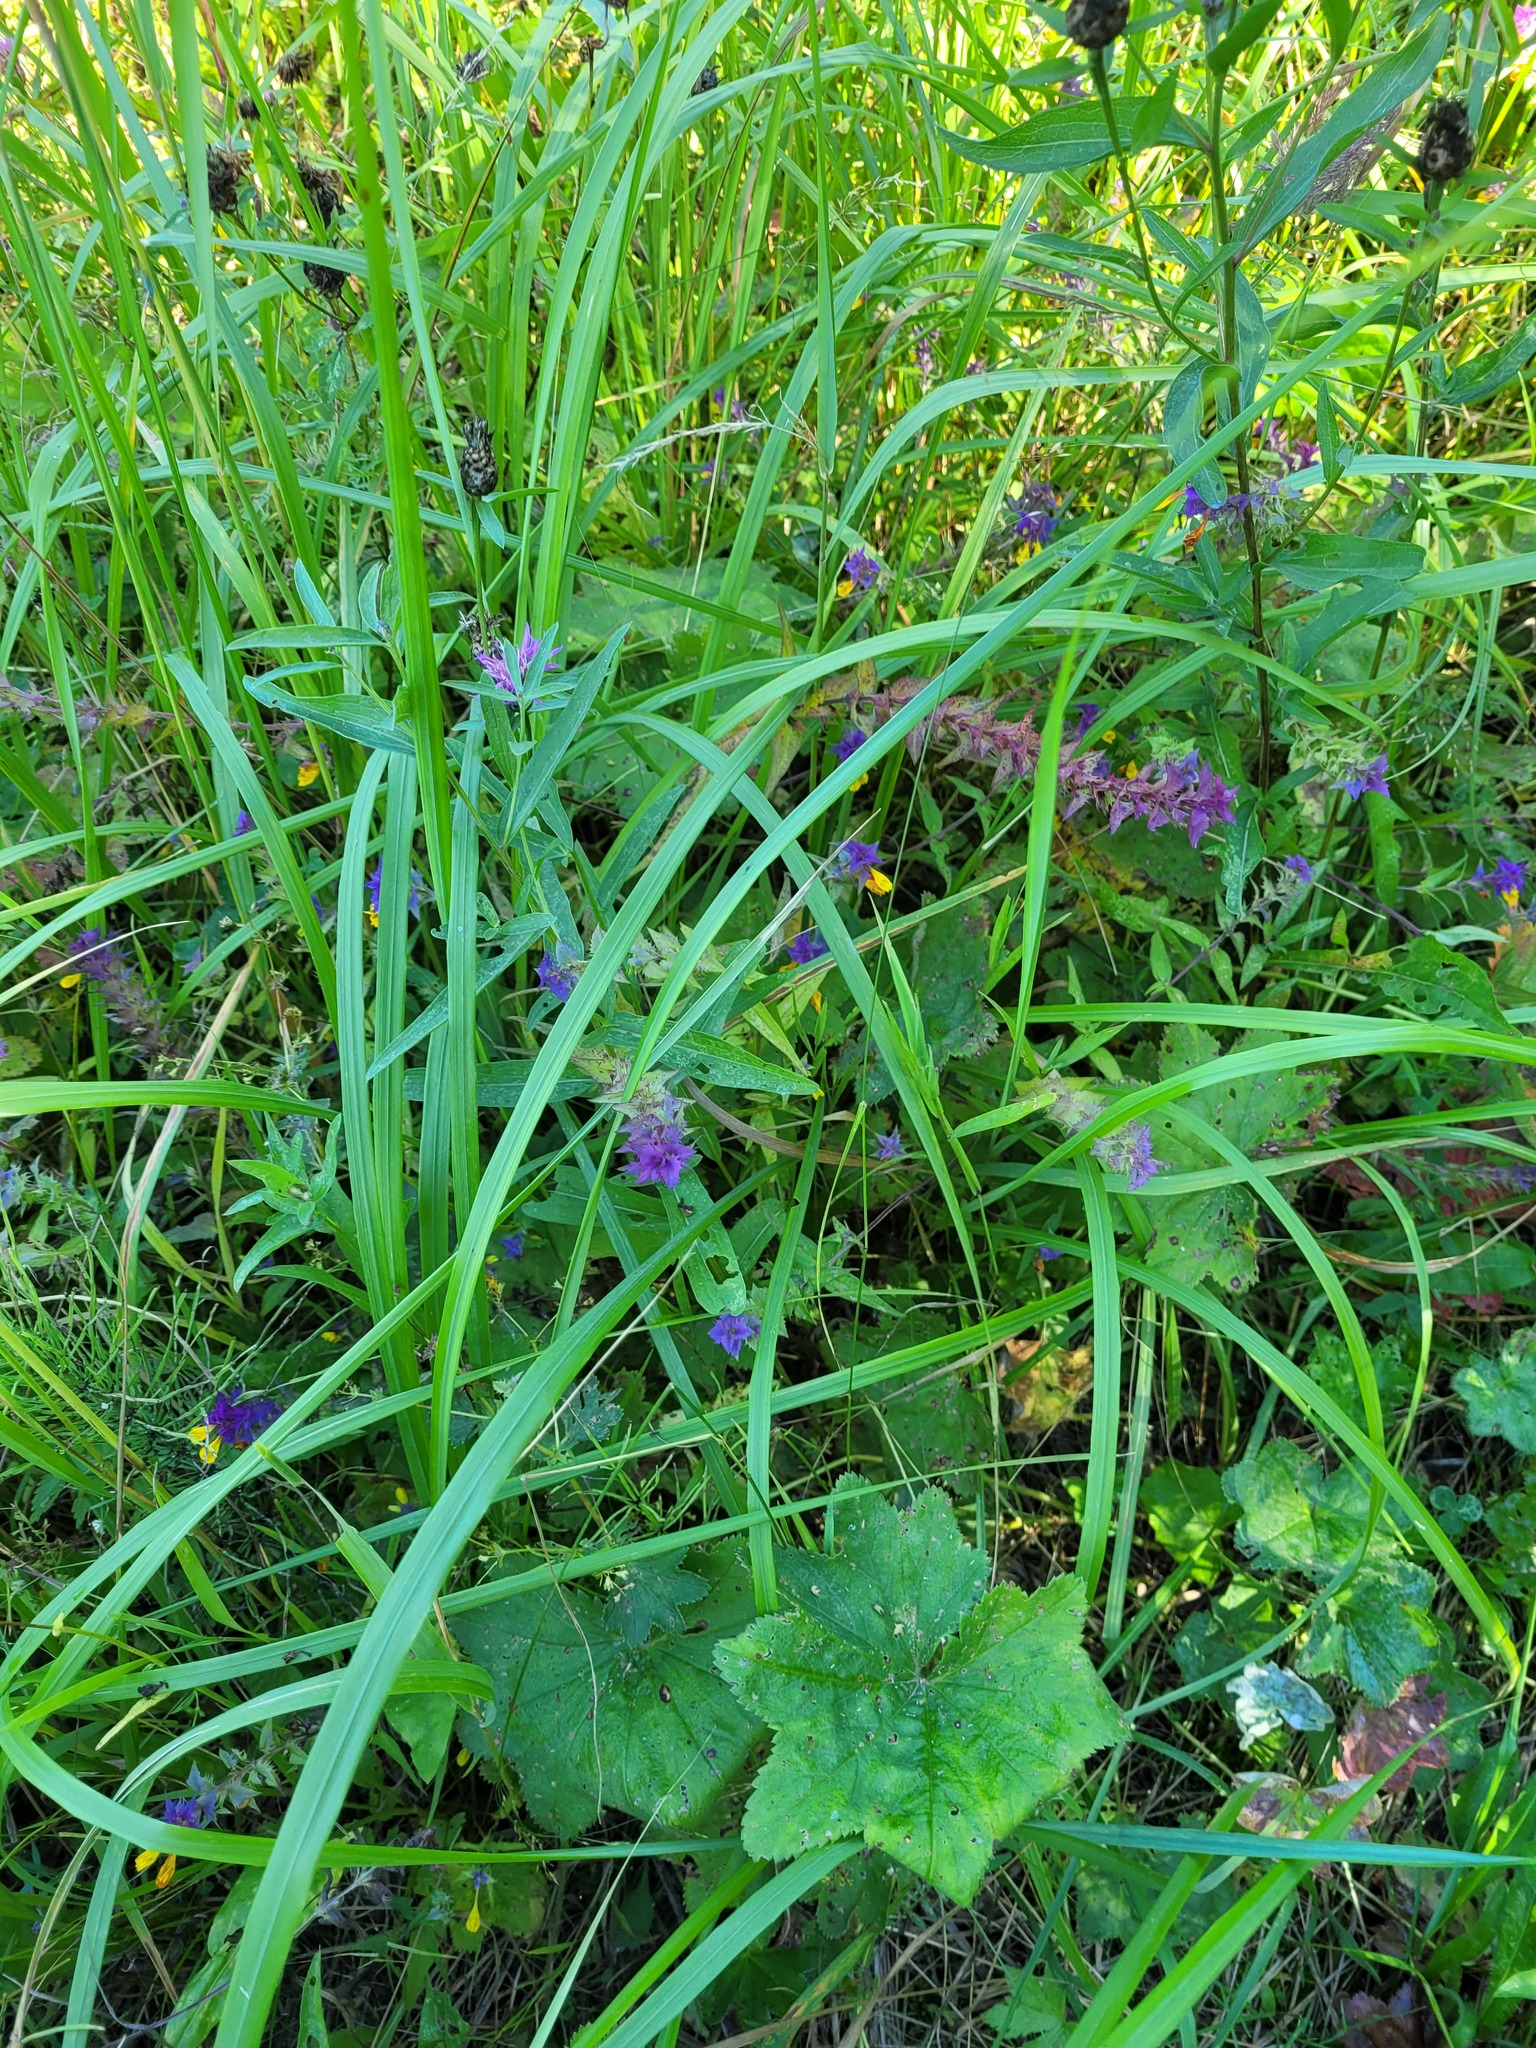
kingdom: Plantae
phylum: Tracheophyta
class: Magnoliopsida
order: Lamiales
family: Orobanchaceae
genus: Melampyrum
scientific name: Melampyrum nemorosum
